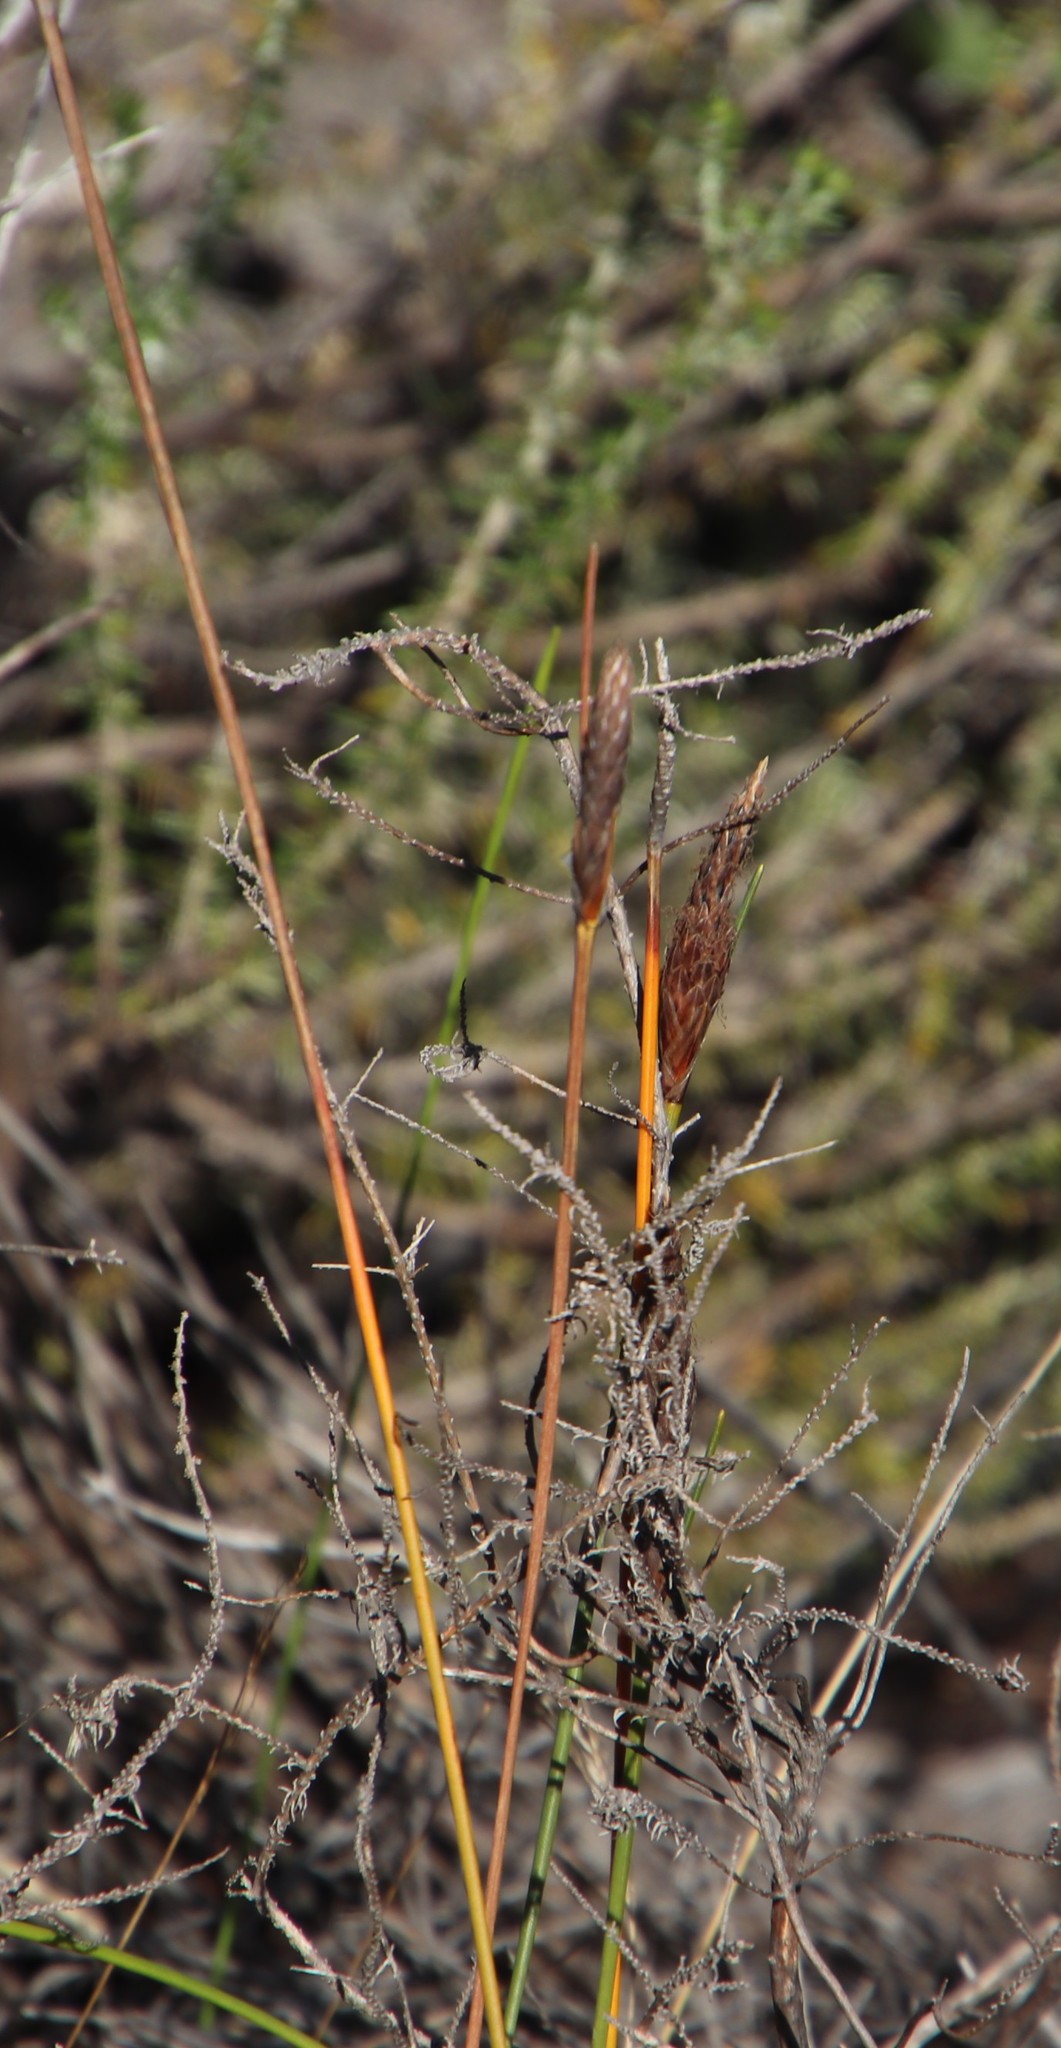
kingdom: Plantae
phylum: Tracheophyta
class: Liliopsida
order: Poales
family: Cyperaceae
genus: Ficinia
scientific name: Ficinia deusta
